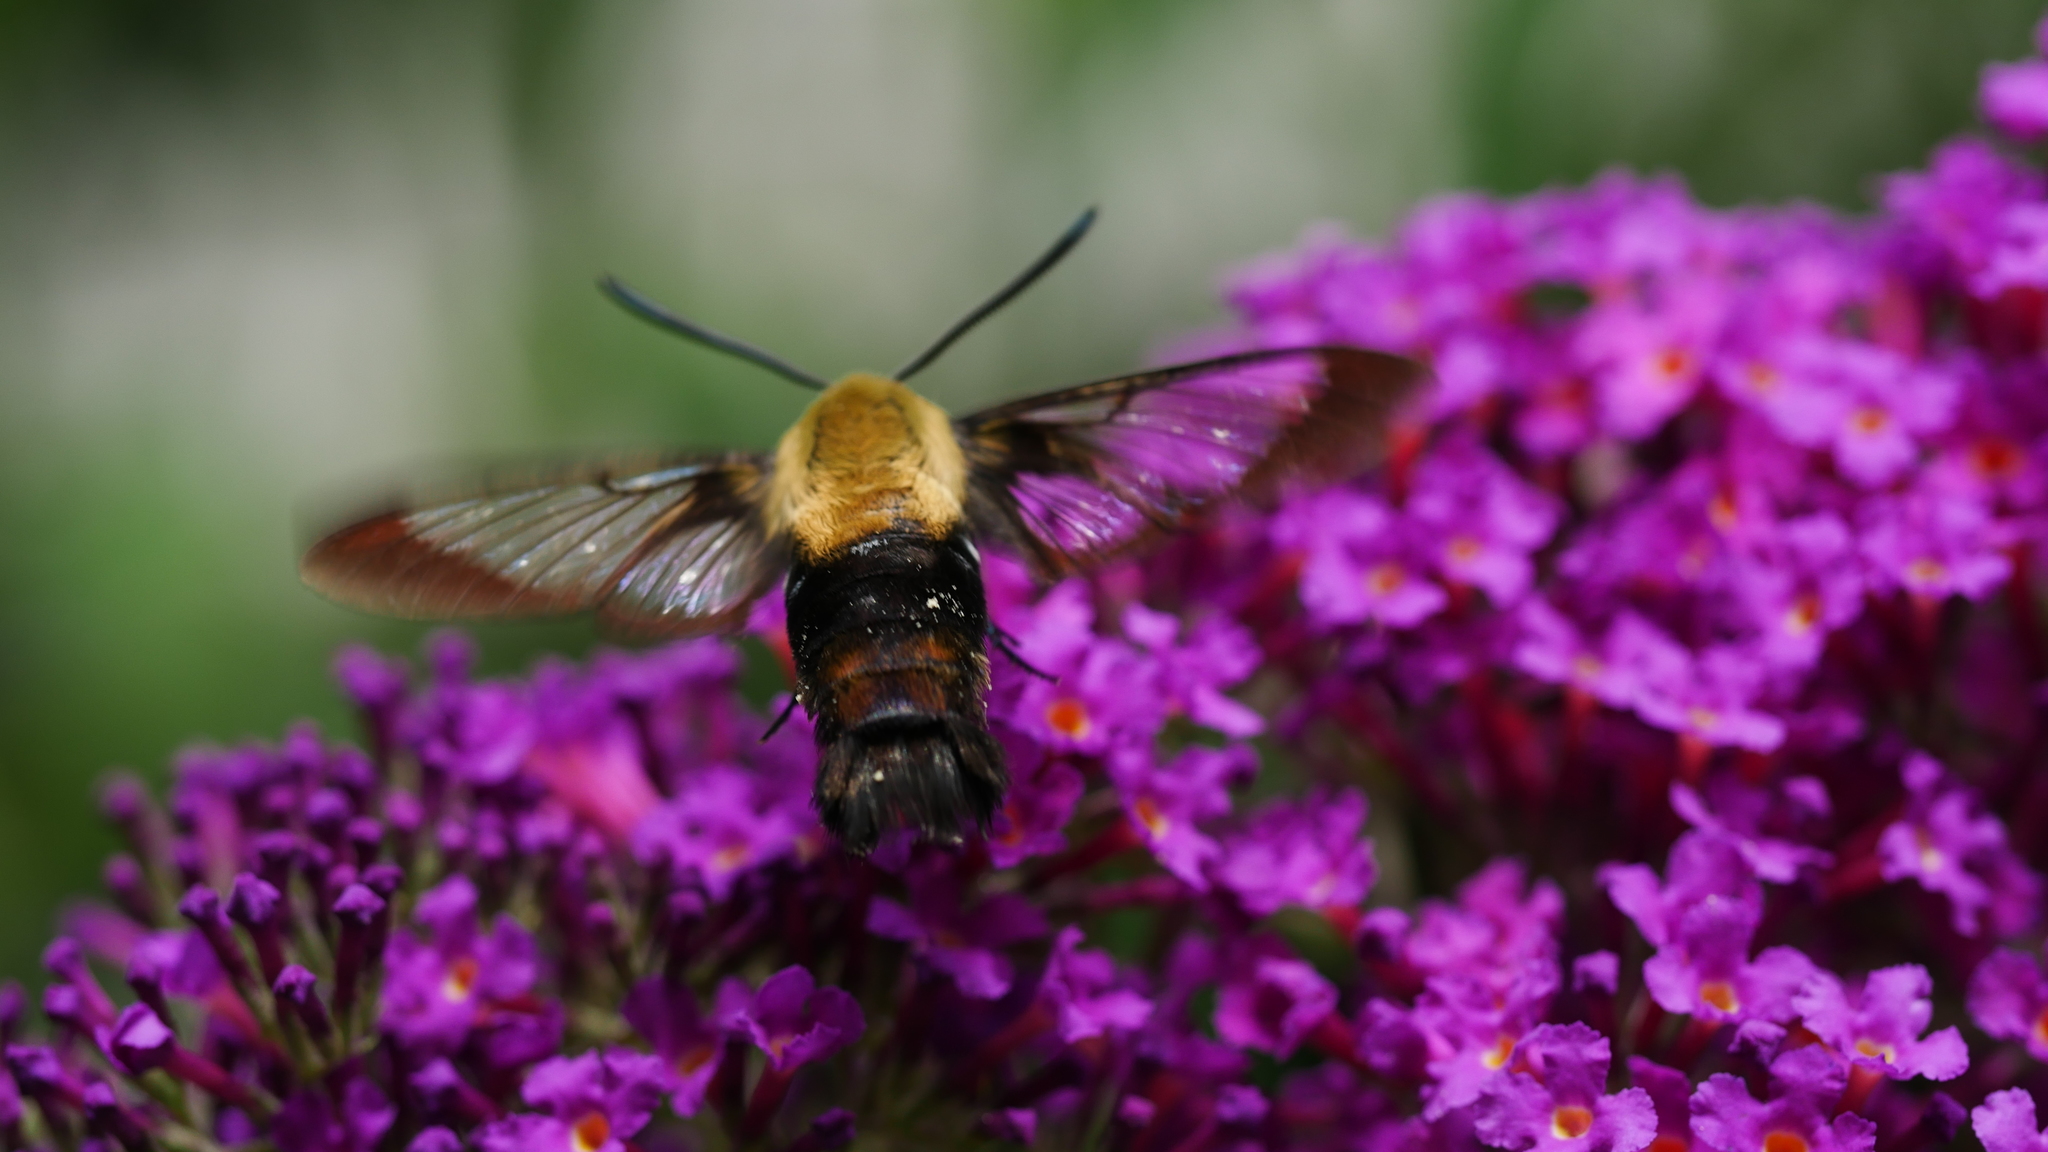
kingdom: Animalia
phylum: Arthropoda
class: Insecta
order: Lepidoptera
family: Sphingidae
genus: Hemaris
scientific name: Hemaris diffinis
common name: Bumblebee moth
